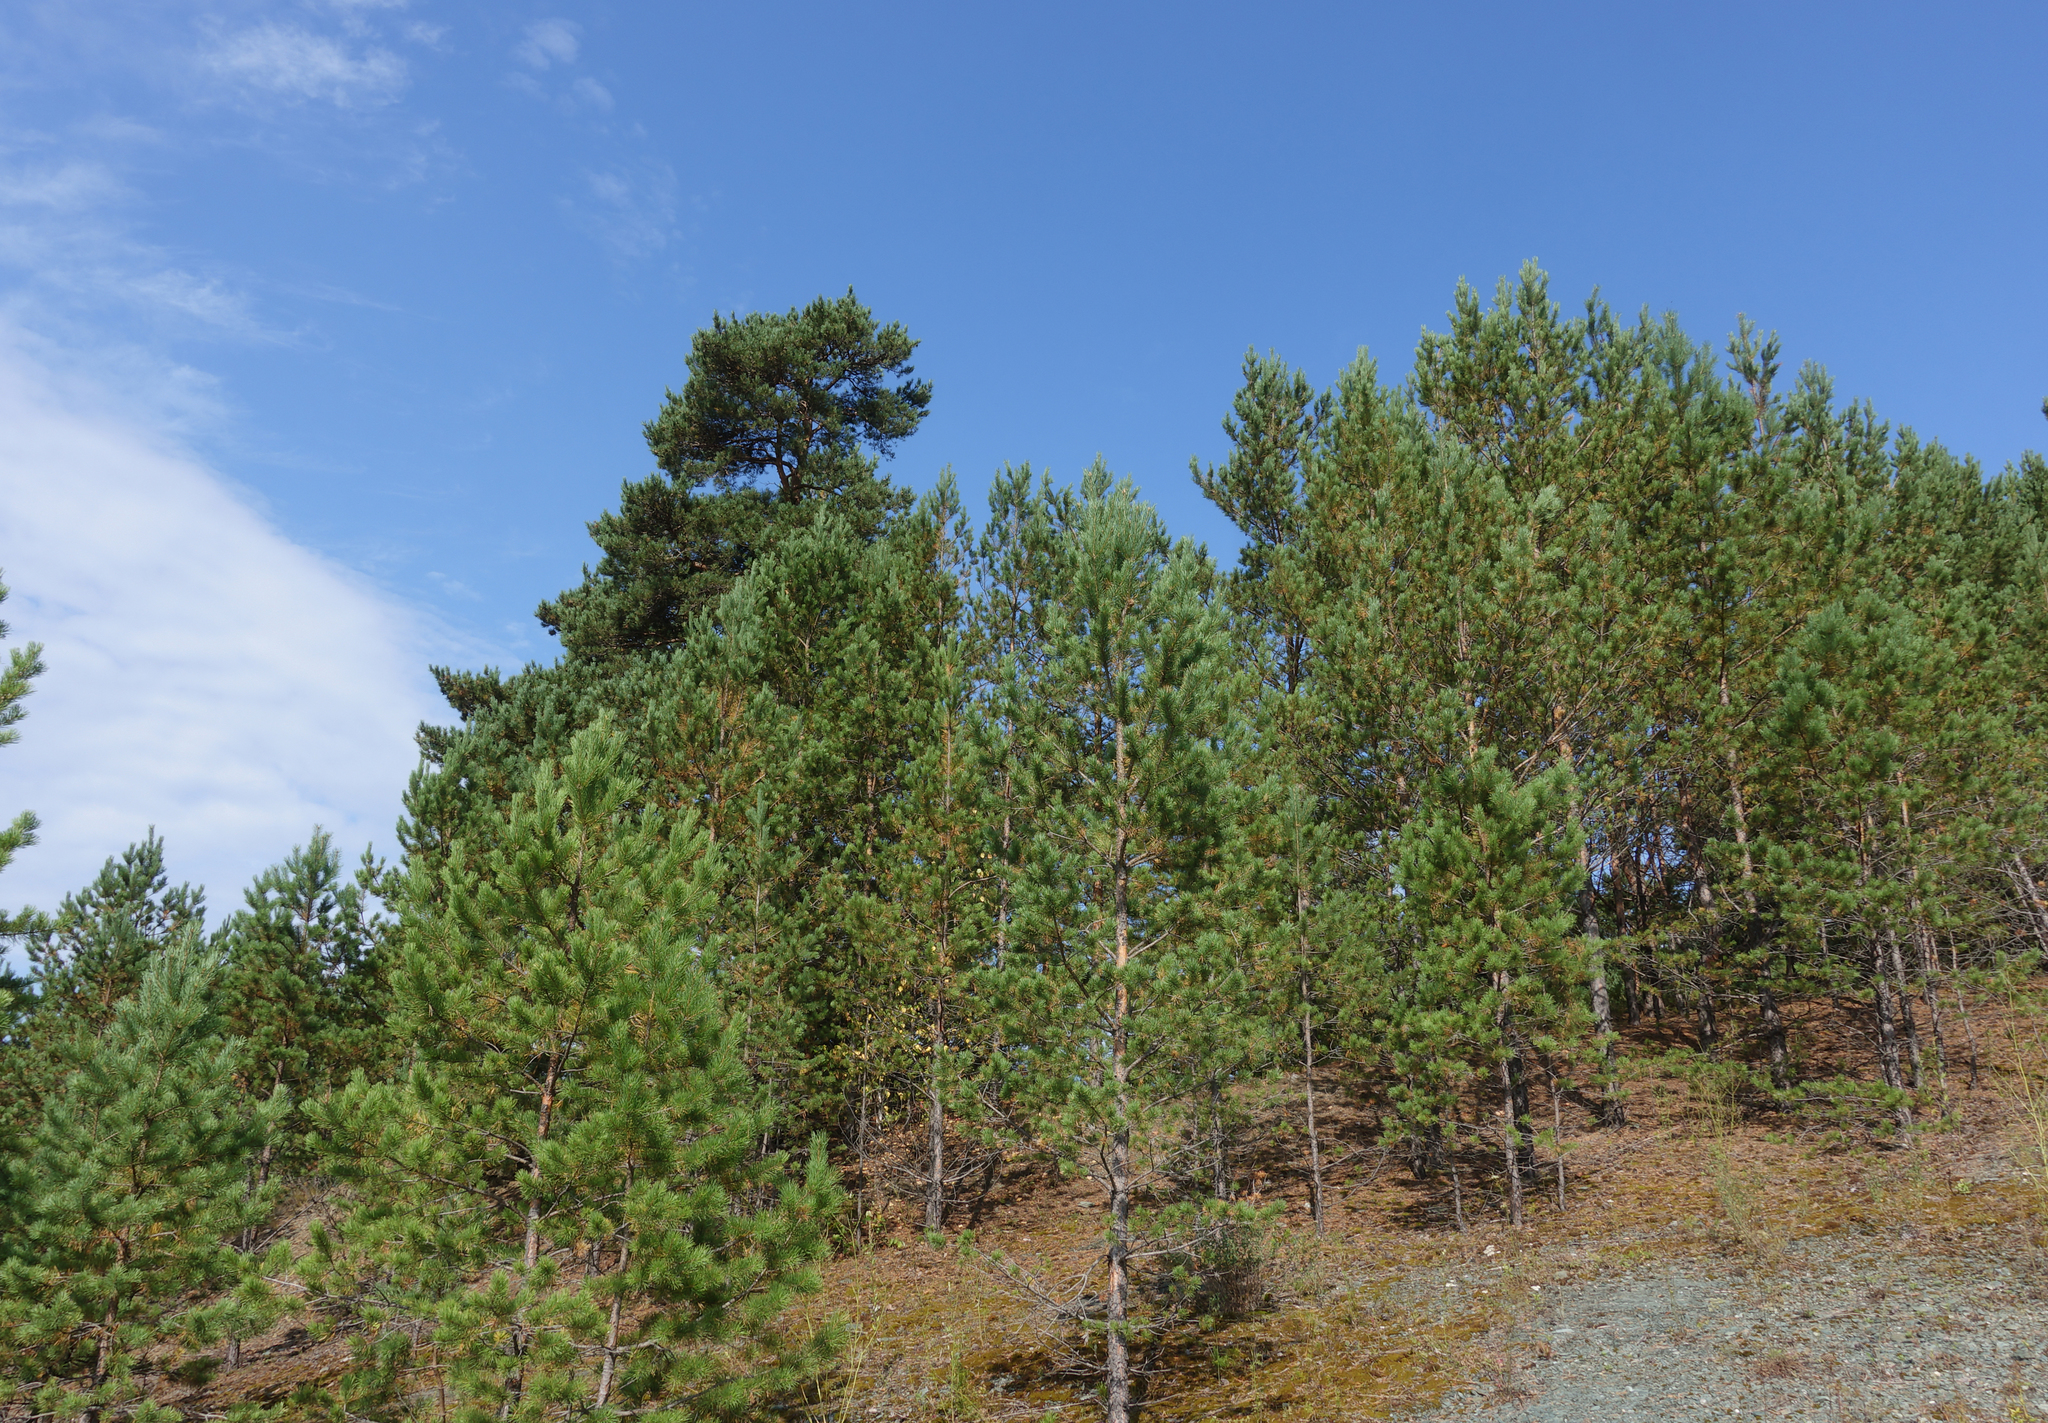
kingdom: Plantae
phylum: Tracheophyta
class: Pinopsida
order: Pinales
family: Pinaceae
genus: Pinus
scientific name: Pinus sylvestris
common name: Scots pine
